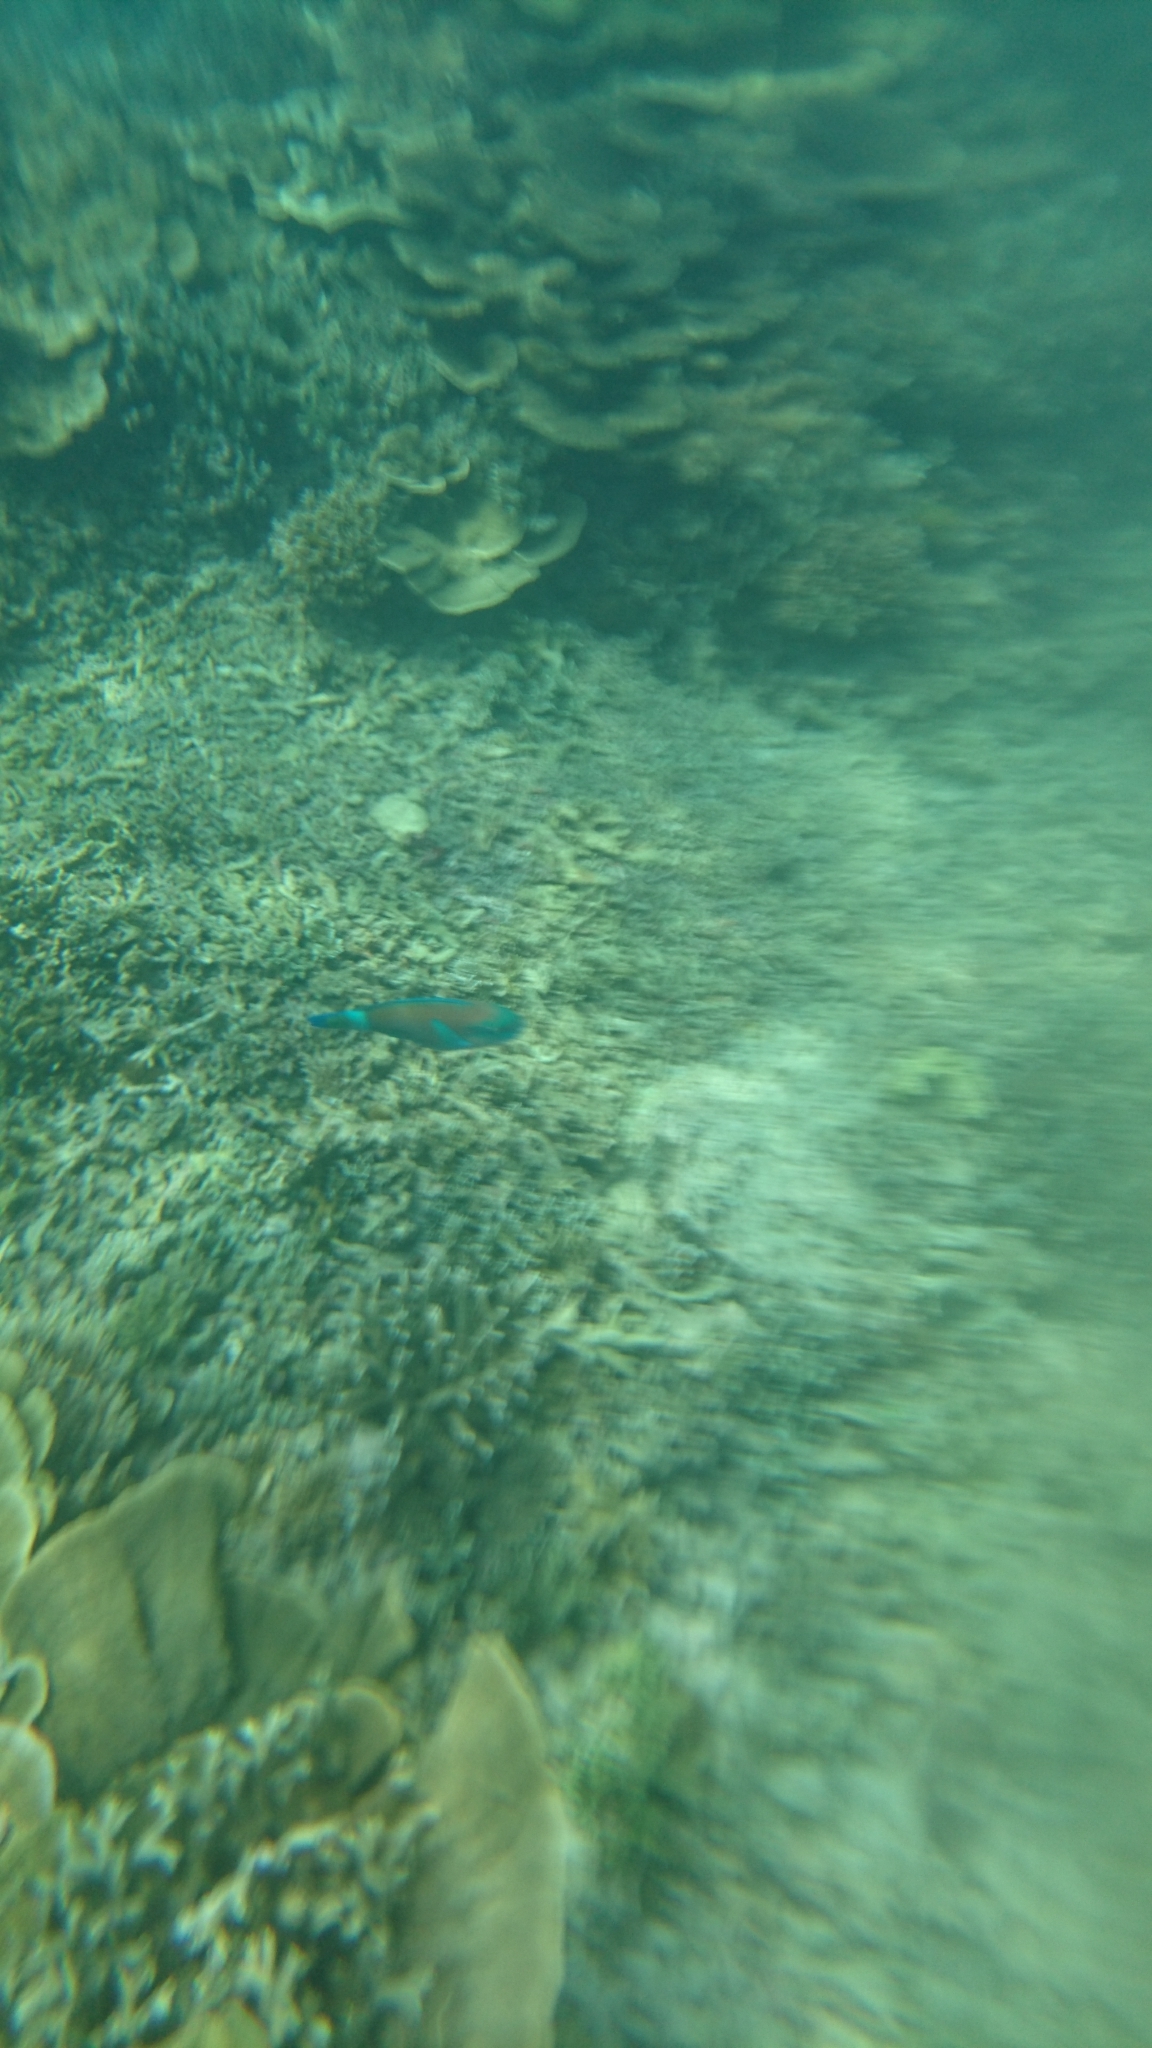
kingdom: Animalia
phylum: Chordata
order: Perciformes
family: Scaridae
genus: Chlorurus
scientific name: Chlorurus spilurus
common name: Bullethead parrotfish
